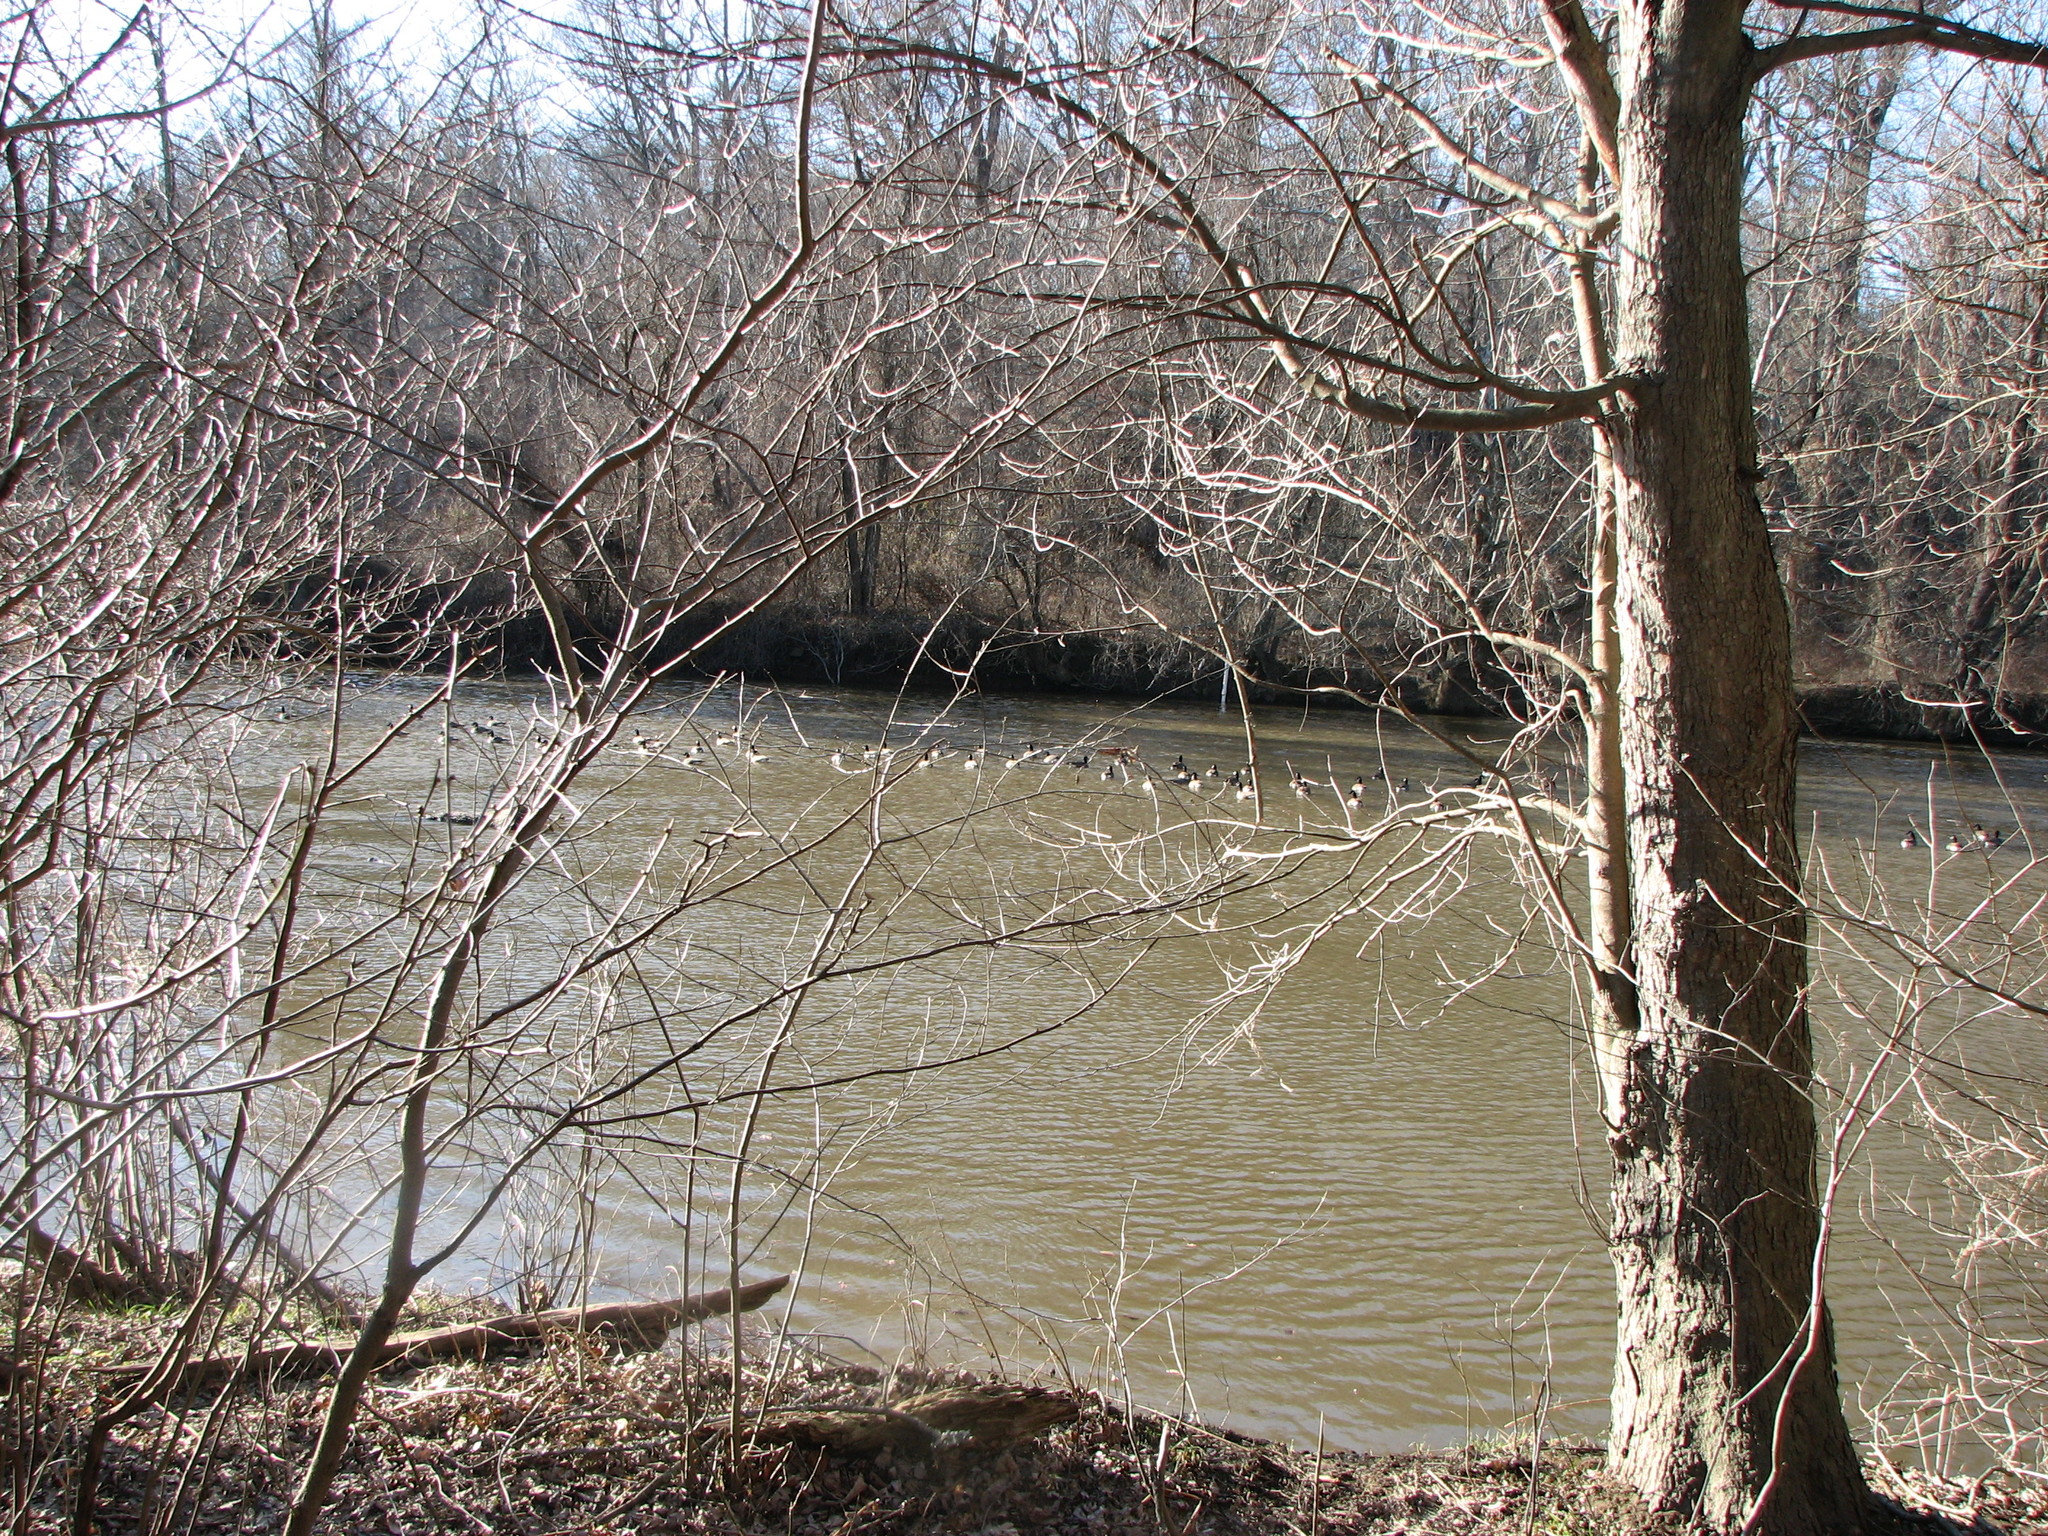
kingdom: Animalia
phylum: Chordata
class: Aves
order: Anseriformes
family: Anatidae
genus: Branta
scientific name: Branta canadensis
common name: Canada goose
